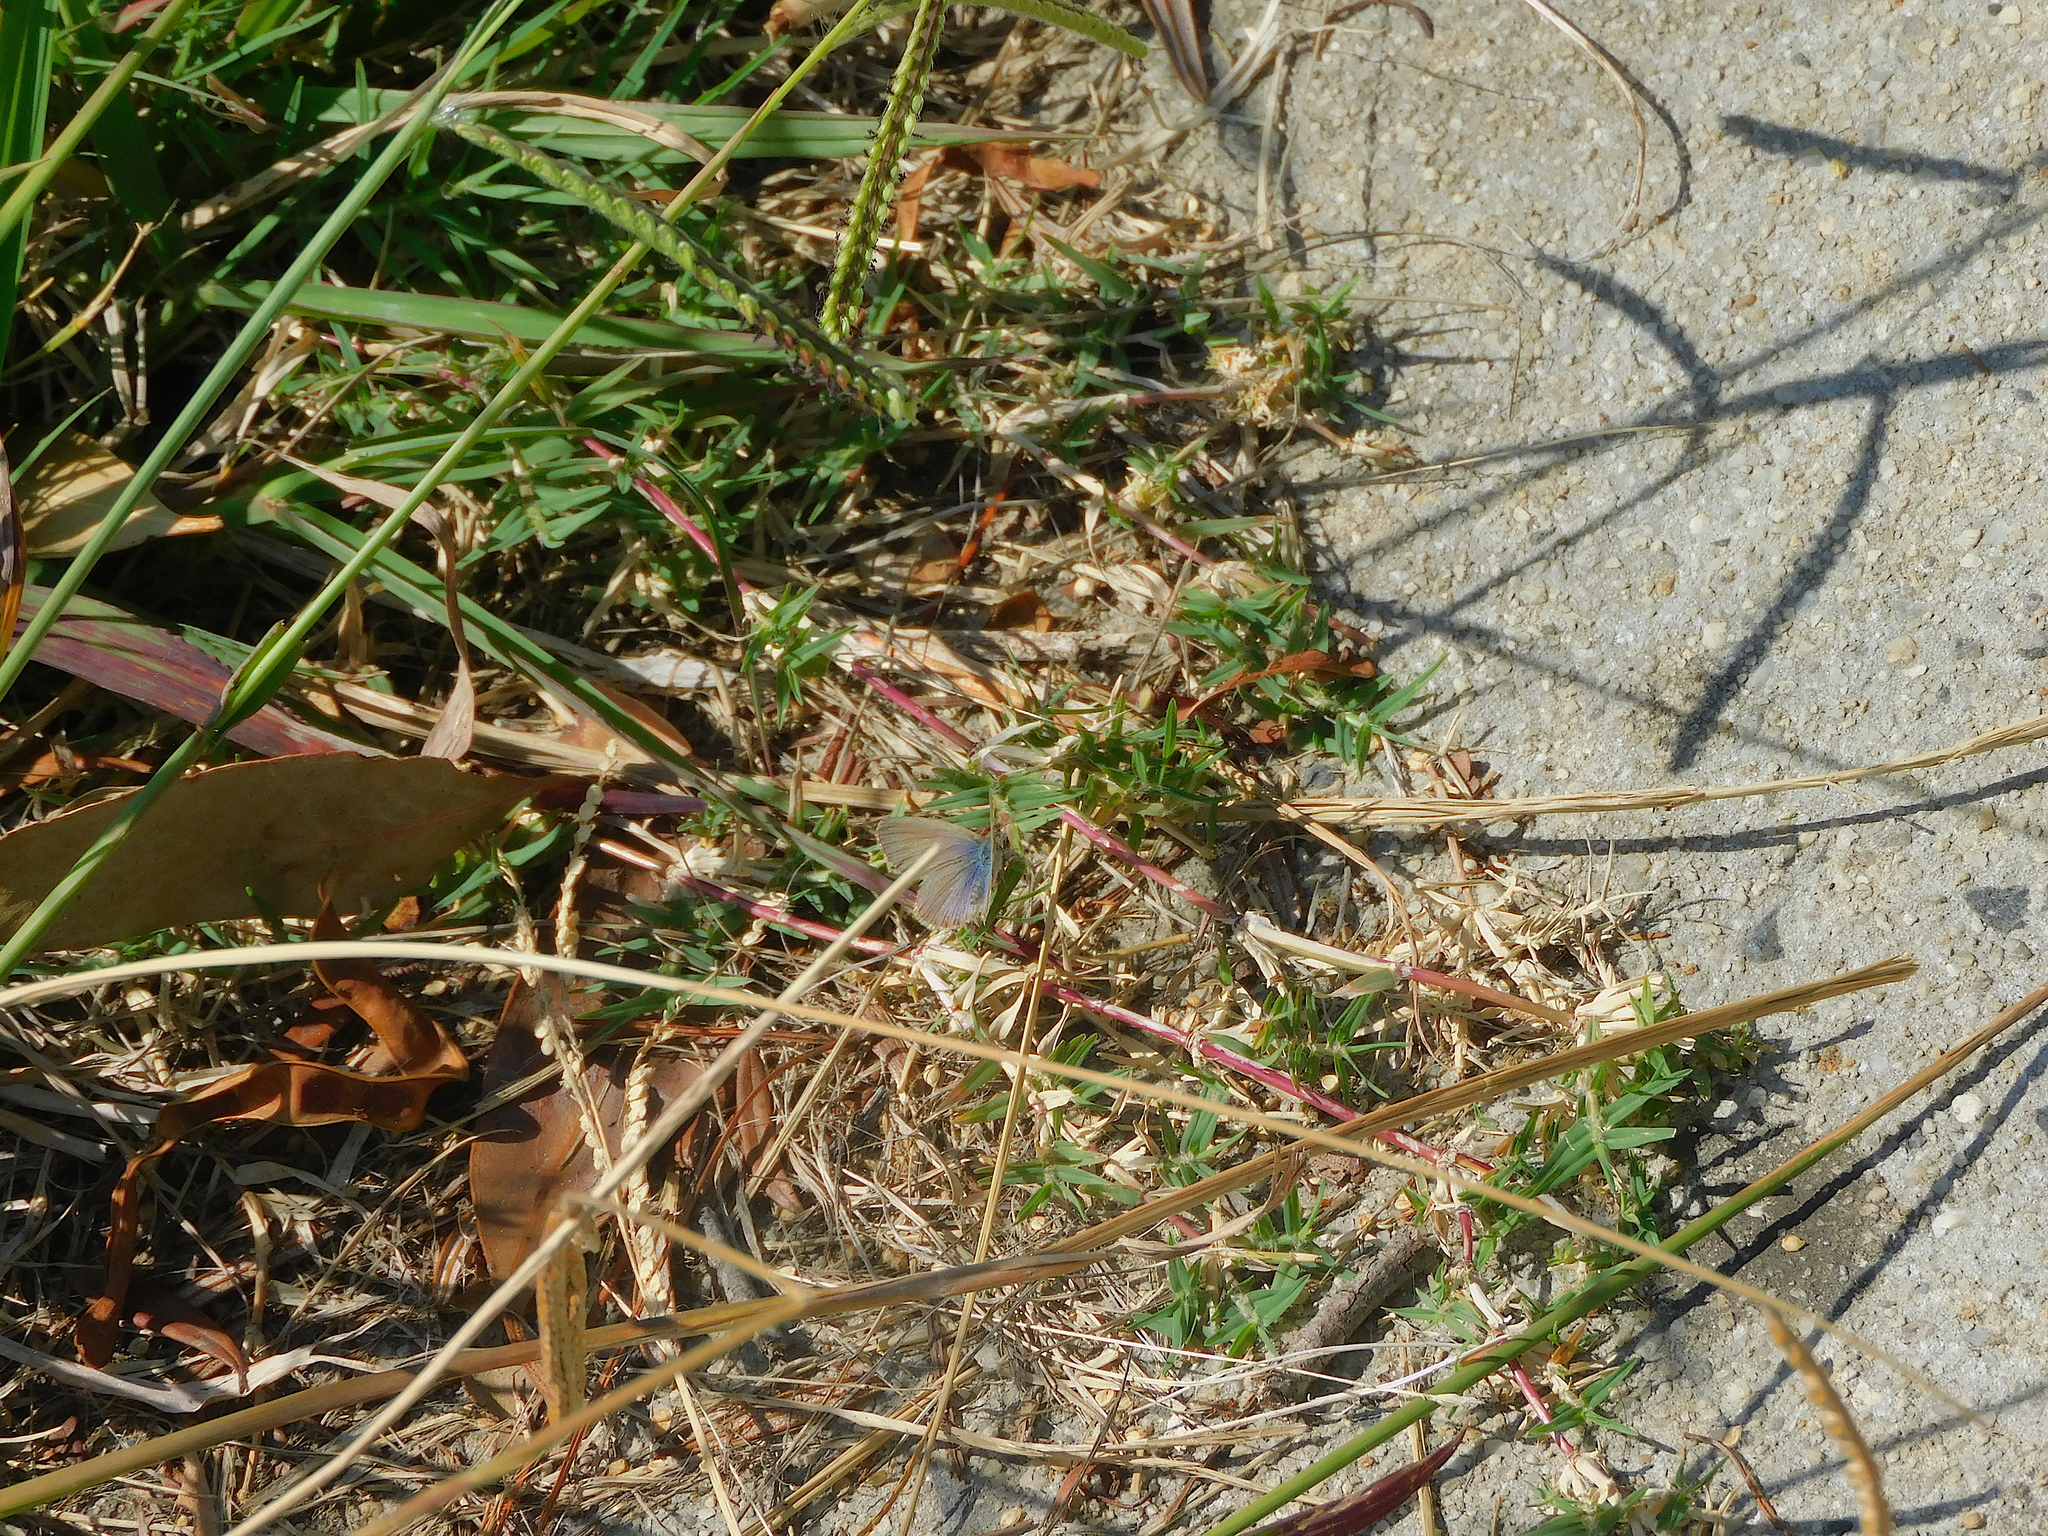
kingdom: Animalia
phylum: Arthropoda
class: Insecta
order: Lepidoptera
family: Lycaenidae
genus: Zizina
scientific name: Zizina labradus
